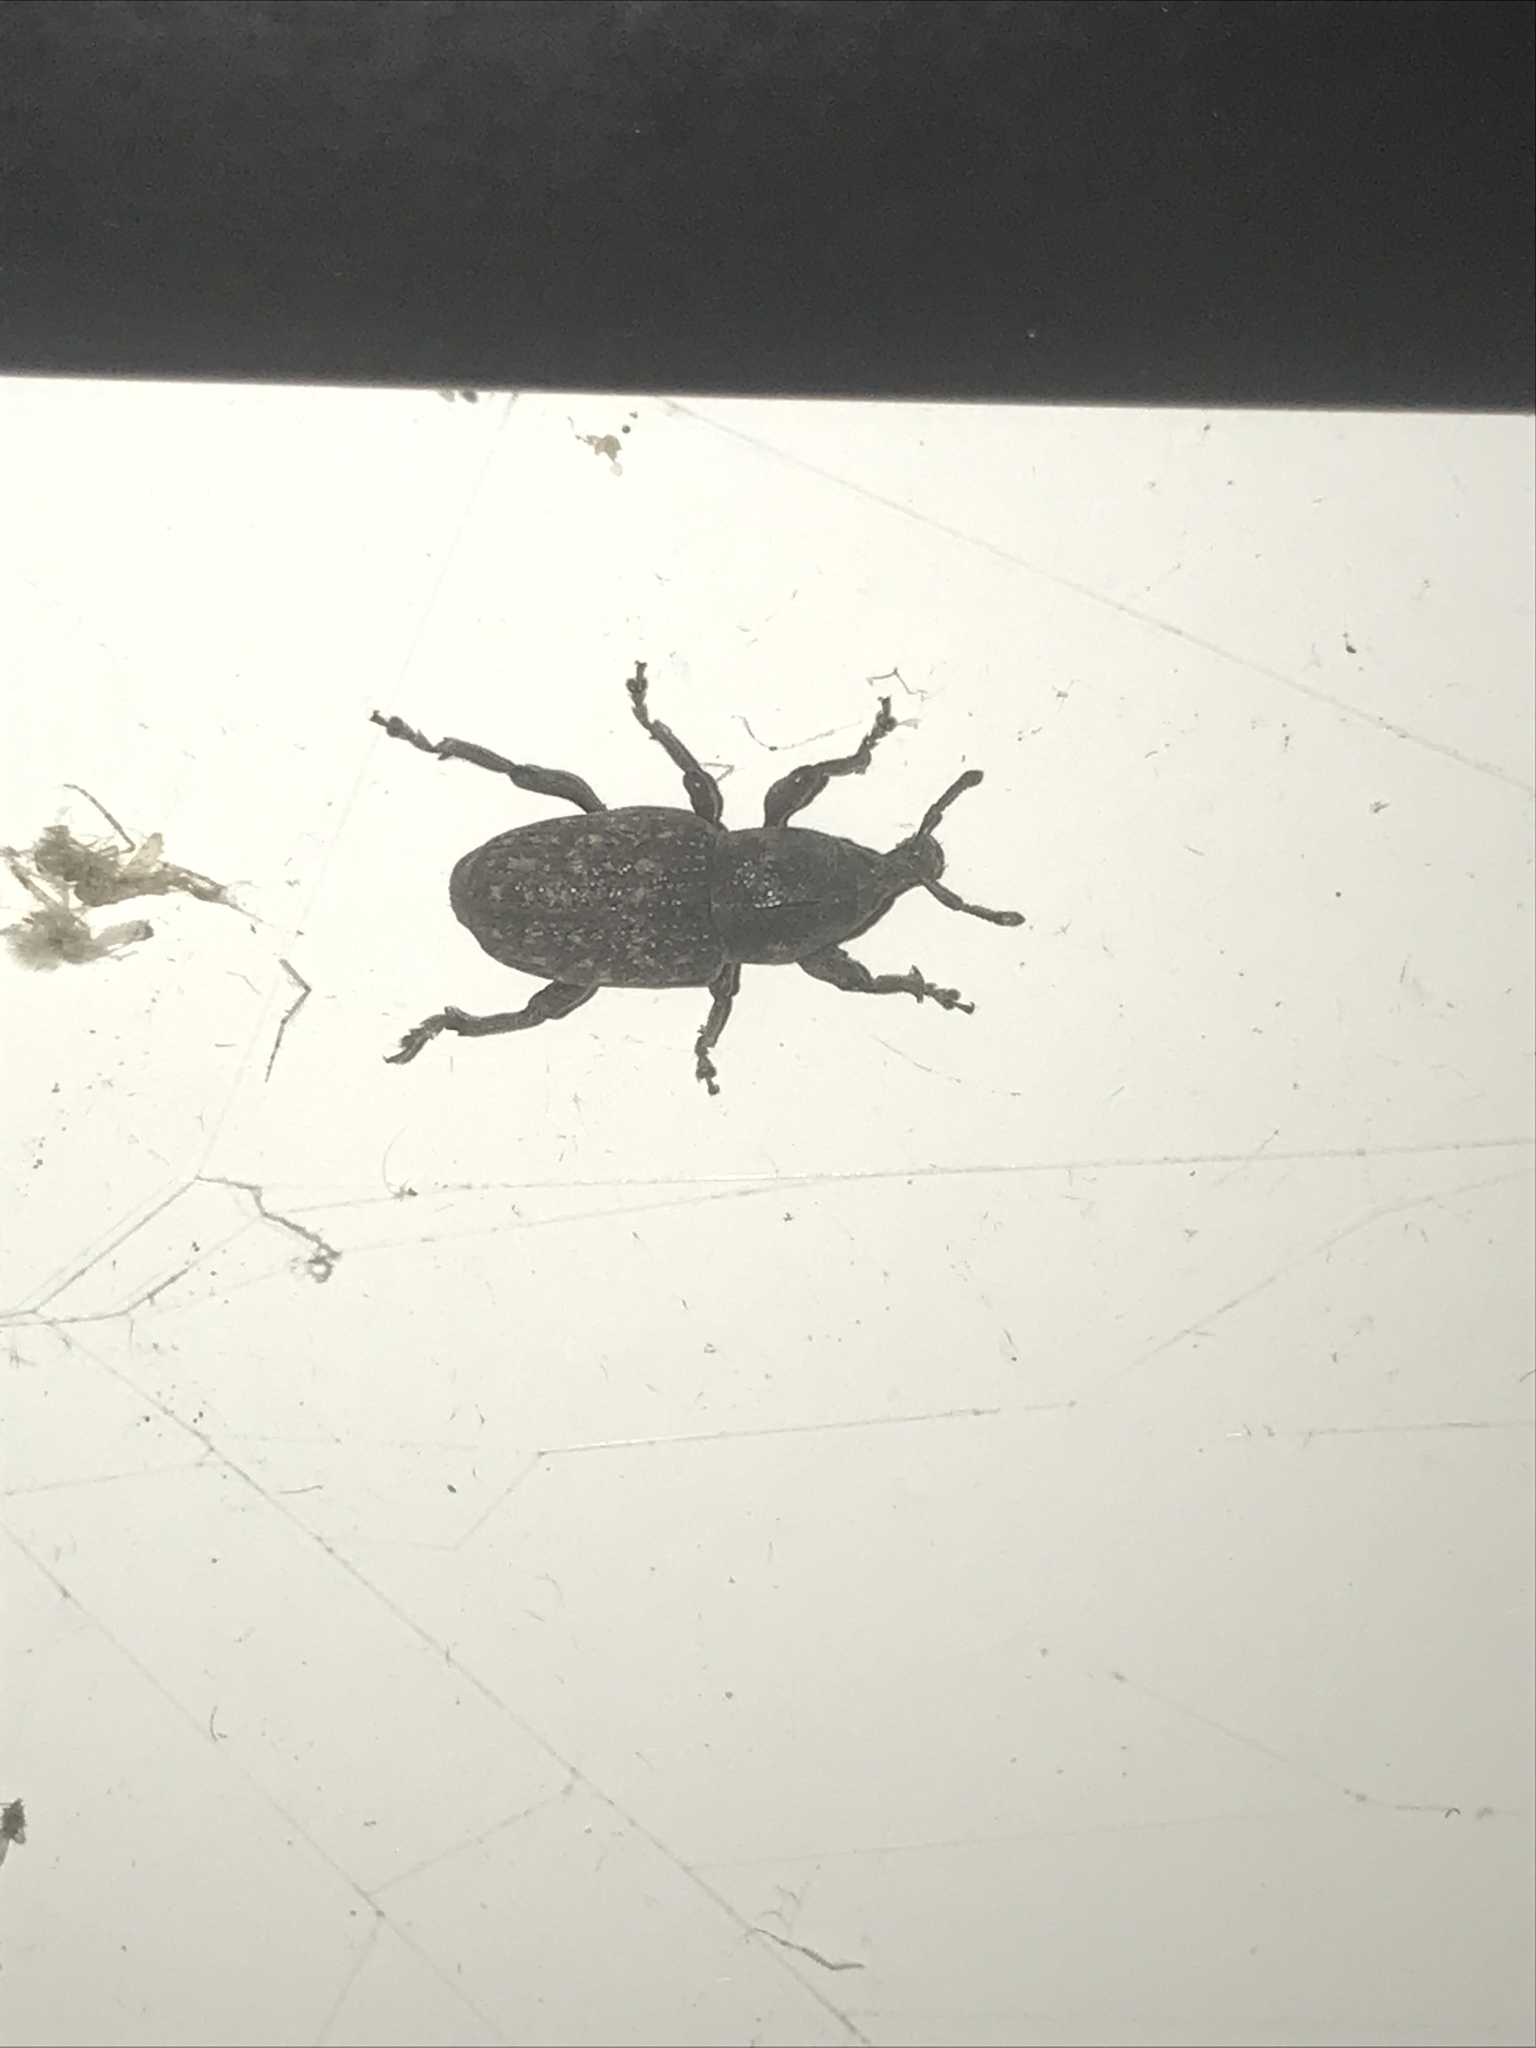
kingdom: Animalia
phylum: Arthropoda
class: Insecta
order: Coleoptera
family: Curculionidae
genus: Pachylobius
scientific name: Pachylobius picivorus
